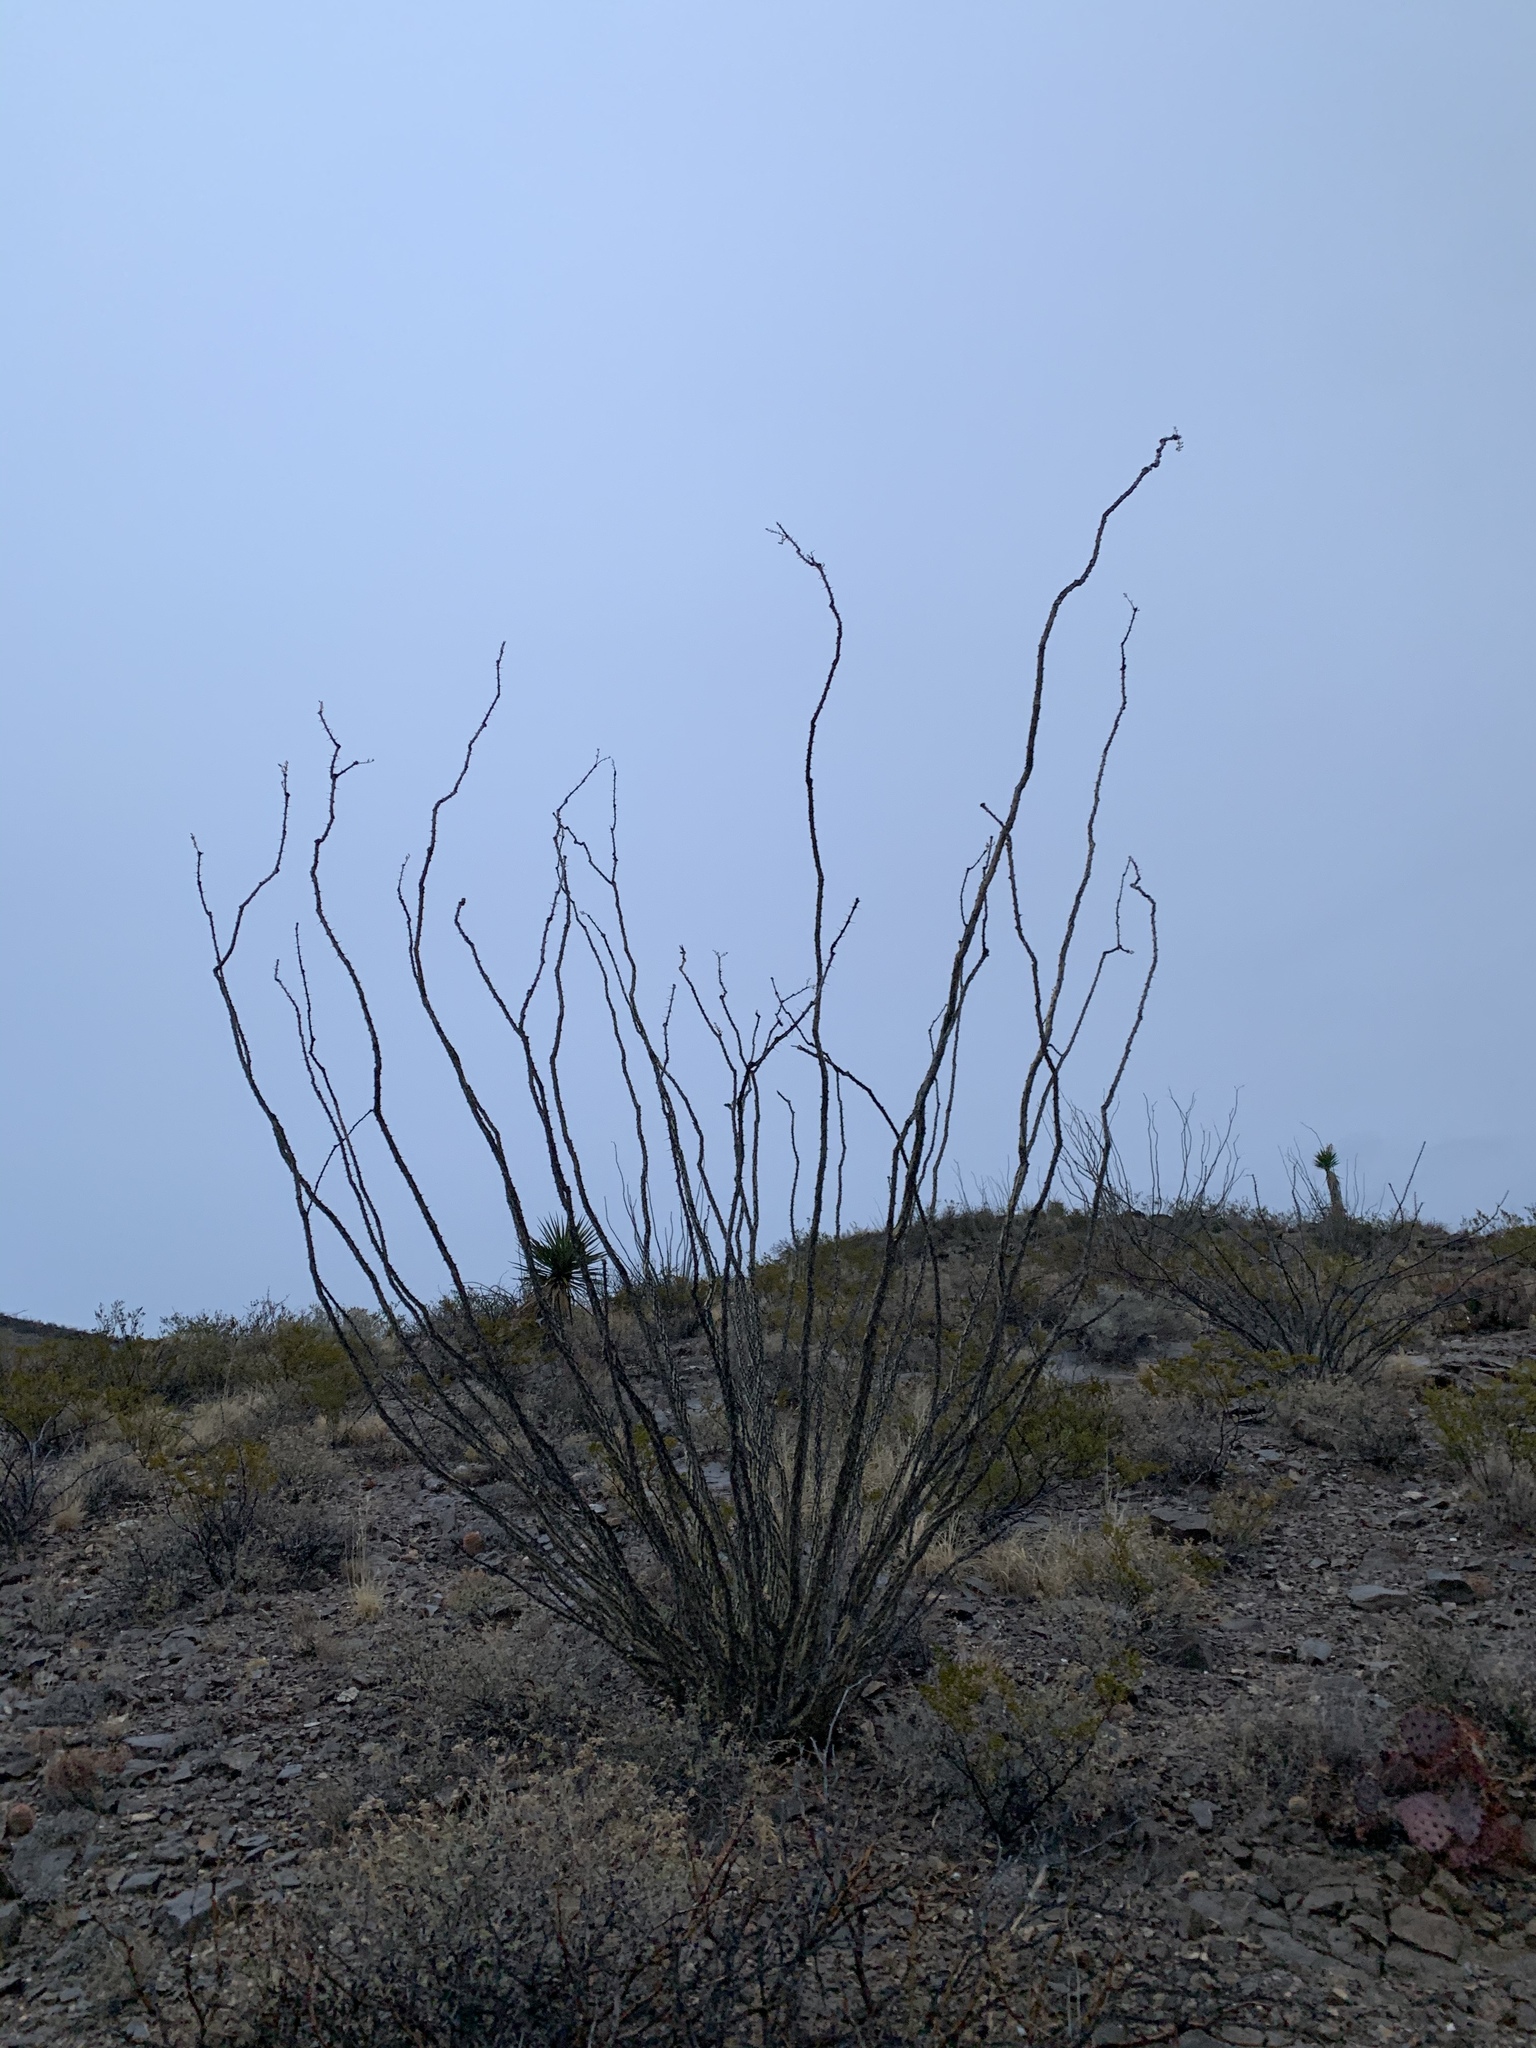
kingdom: Plantae
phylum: Tracheophyta
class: Magnoliopsida
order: Ericales
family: Fouquieriaceae
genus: Fouquieria
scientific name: Fouquieria splendens
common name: Vine-cactus
